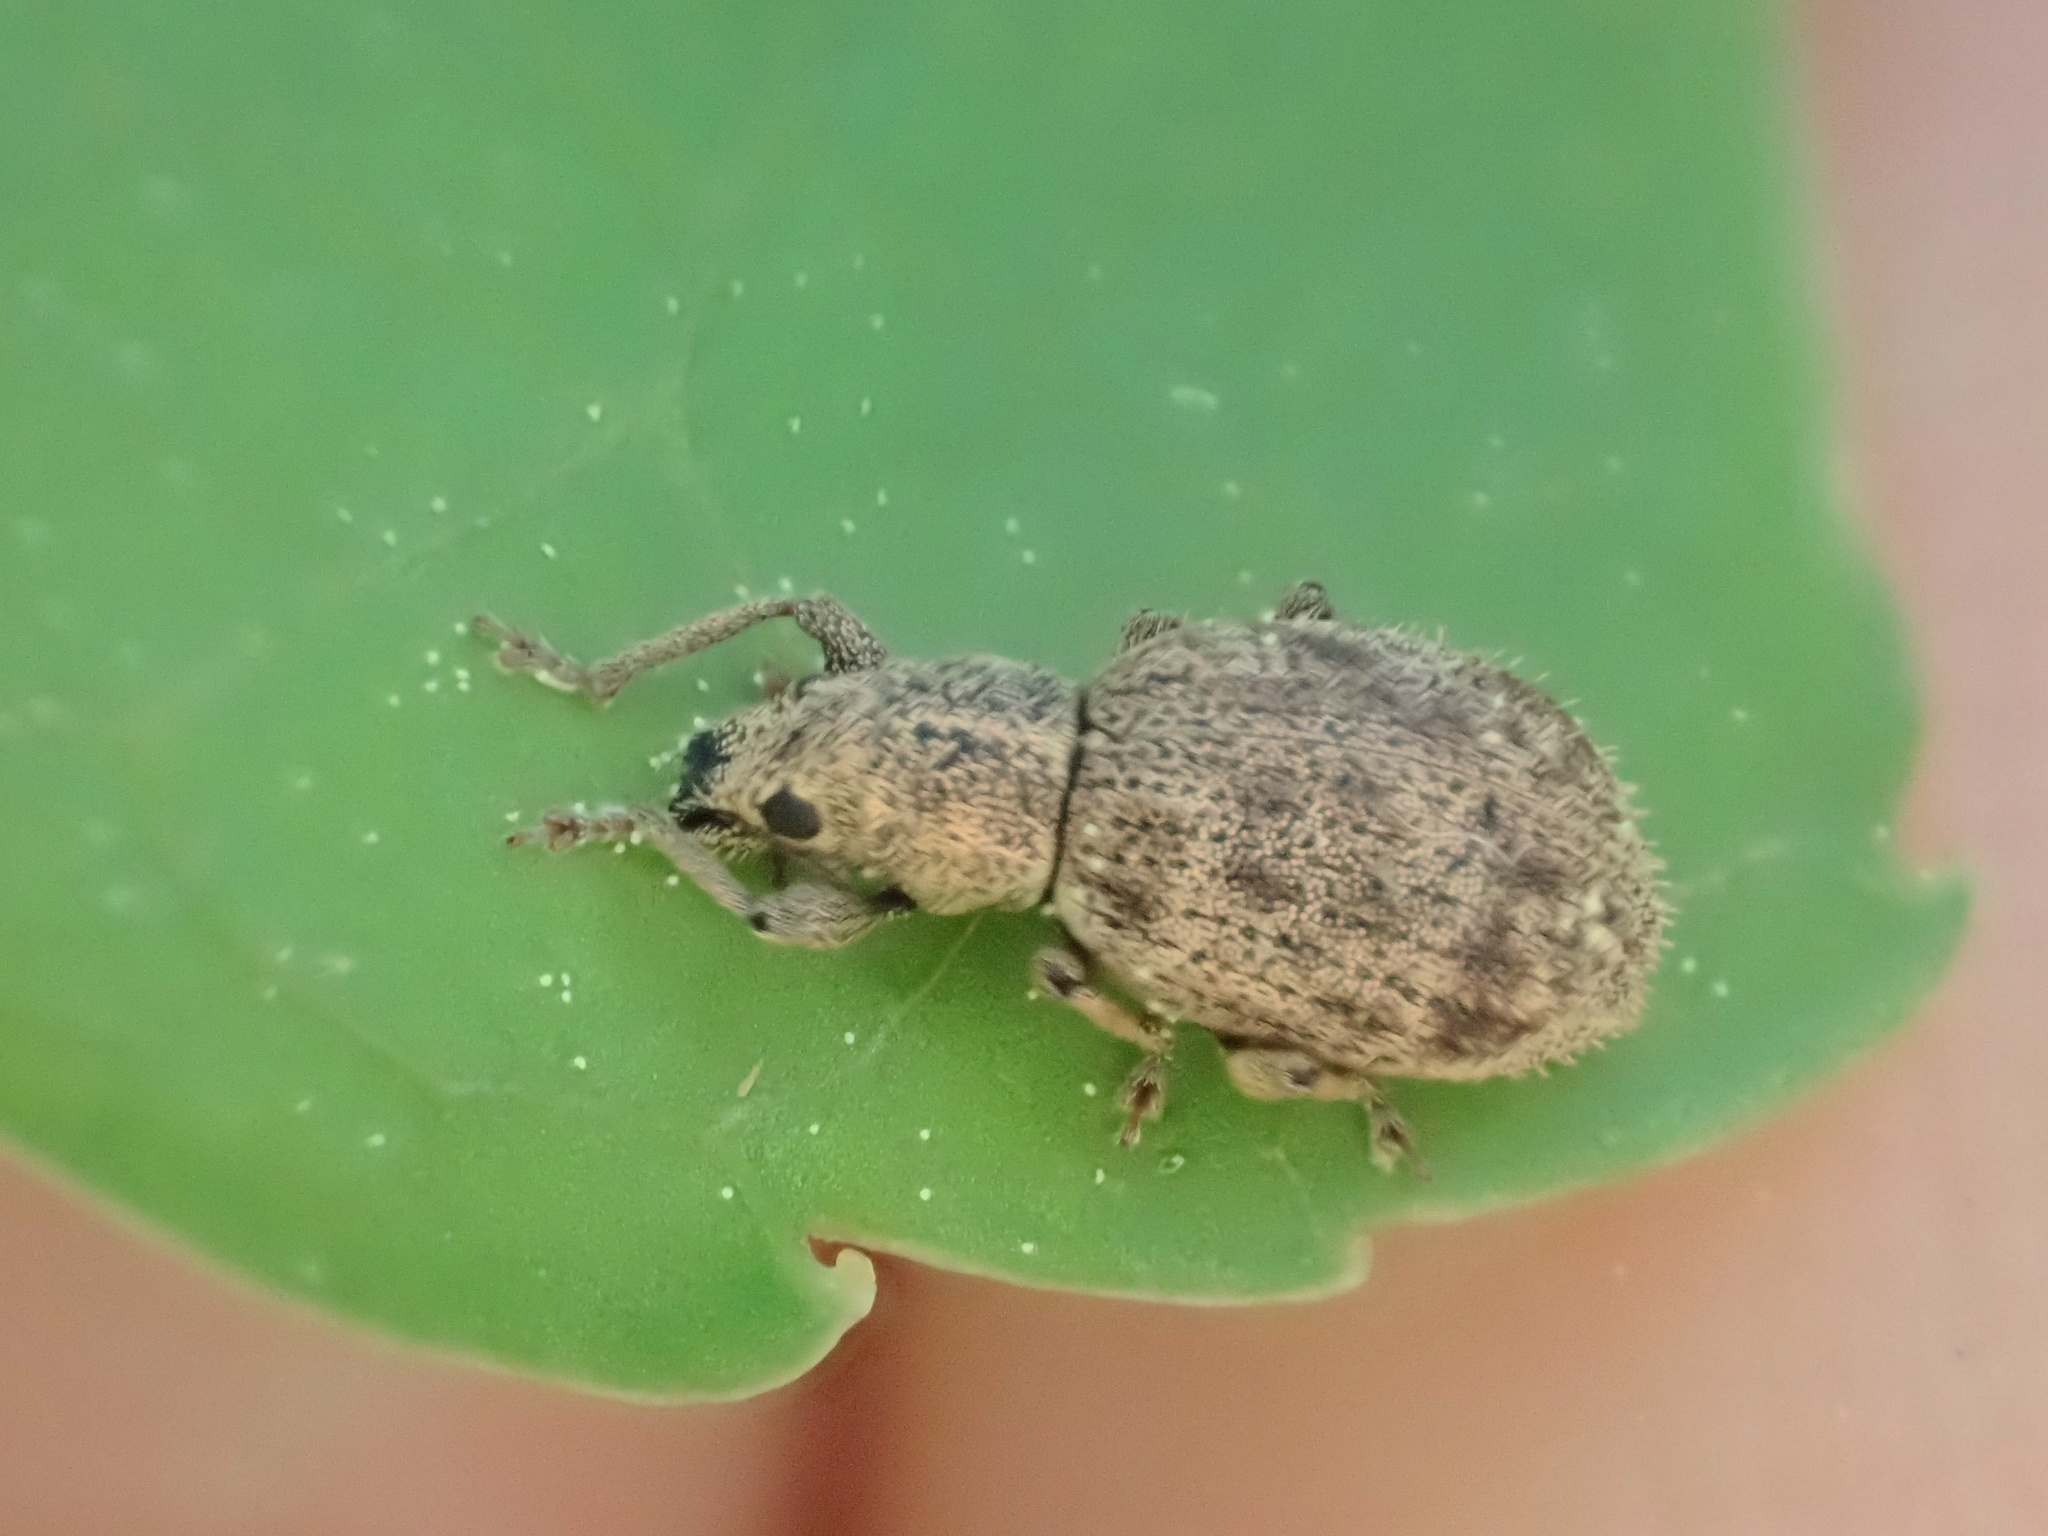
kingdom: Animalia
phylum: Arthropoda
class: Insecta
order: Coleoptera
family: Curculionidae
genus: Sciaphilus
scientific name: Sciaphilus asperatus
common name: Weevil
